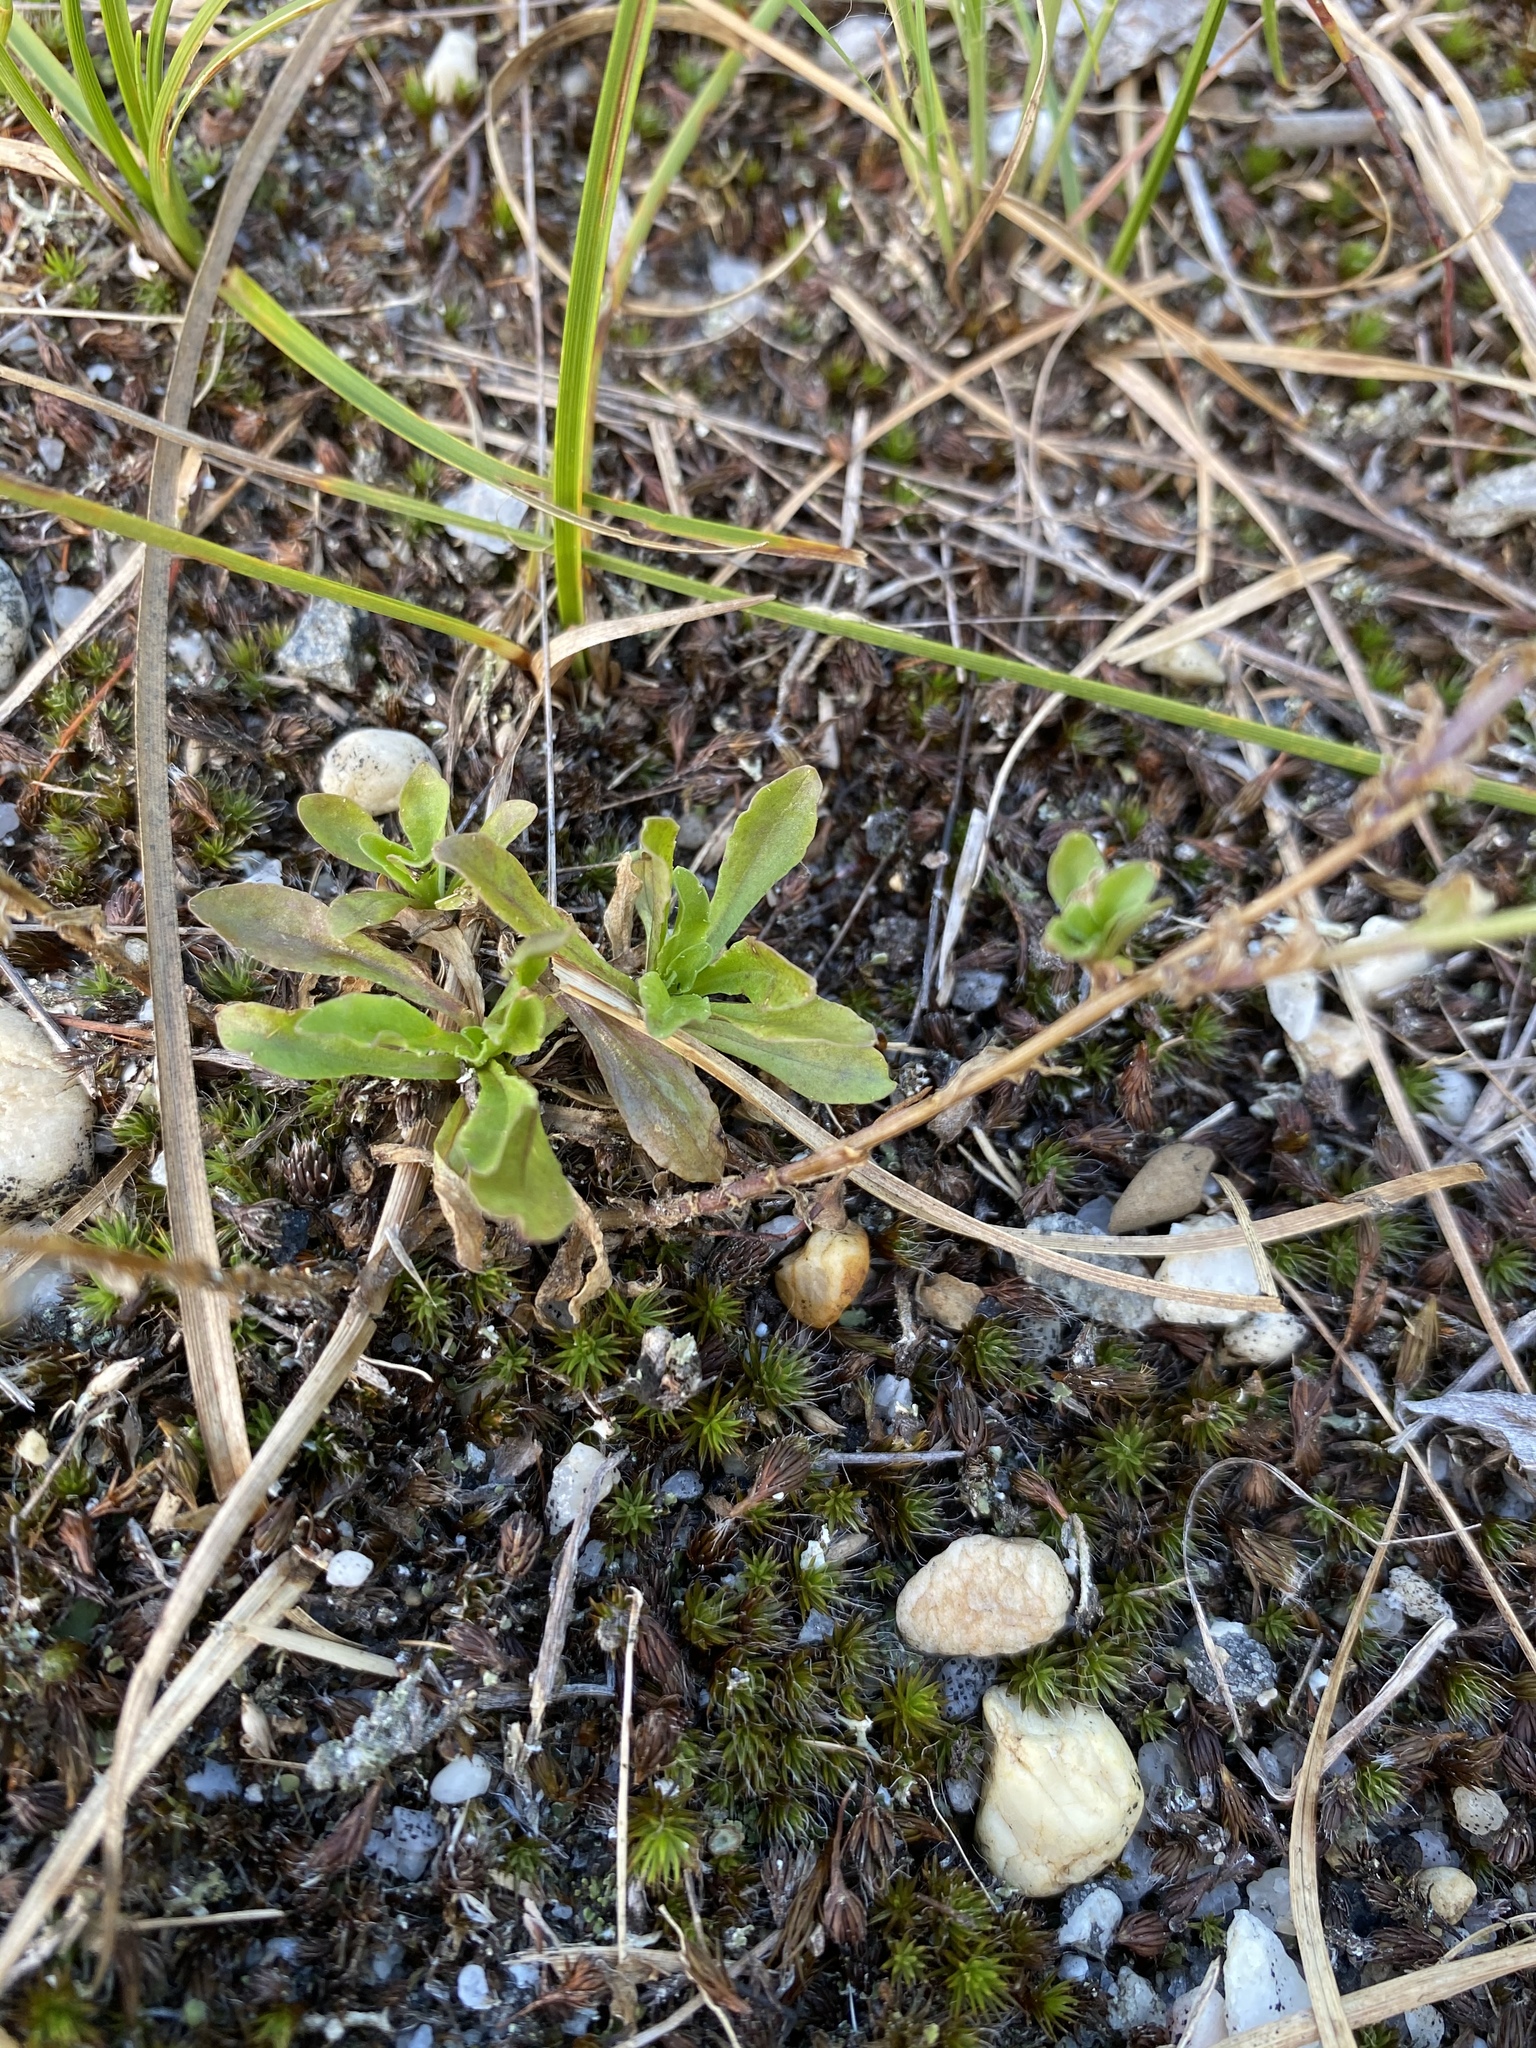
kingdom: Plantae
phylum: Tracheophyta
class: Magnoliopsida
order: Asterales
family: Campanulaceae
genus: Jasione
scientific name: Jasione montana
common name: Sheep's-bit
